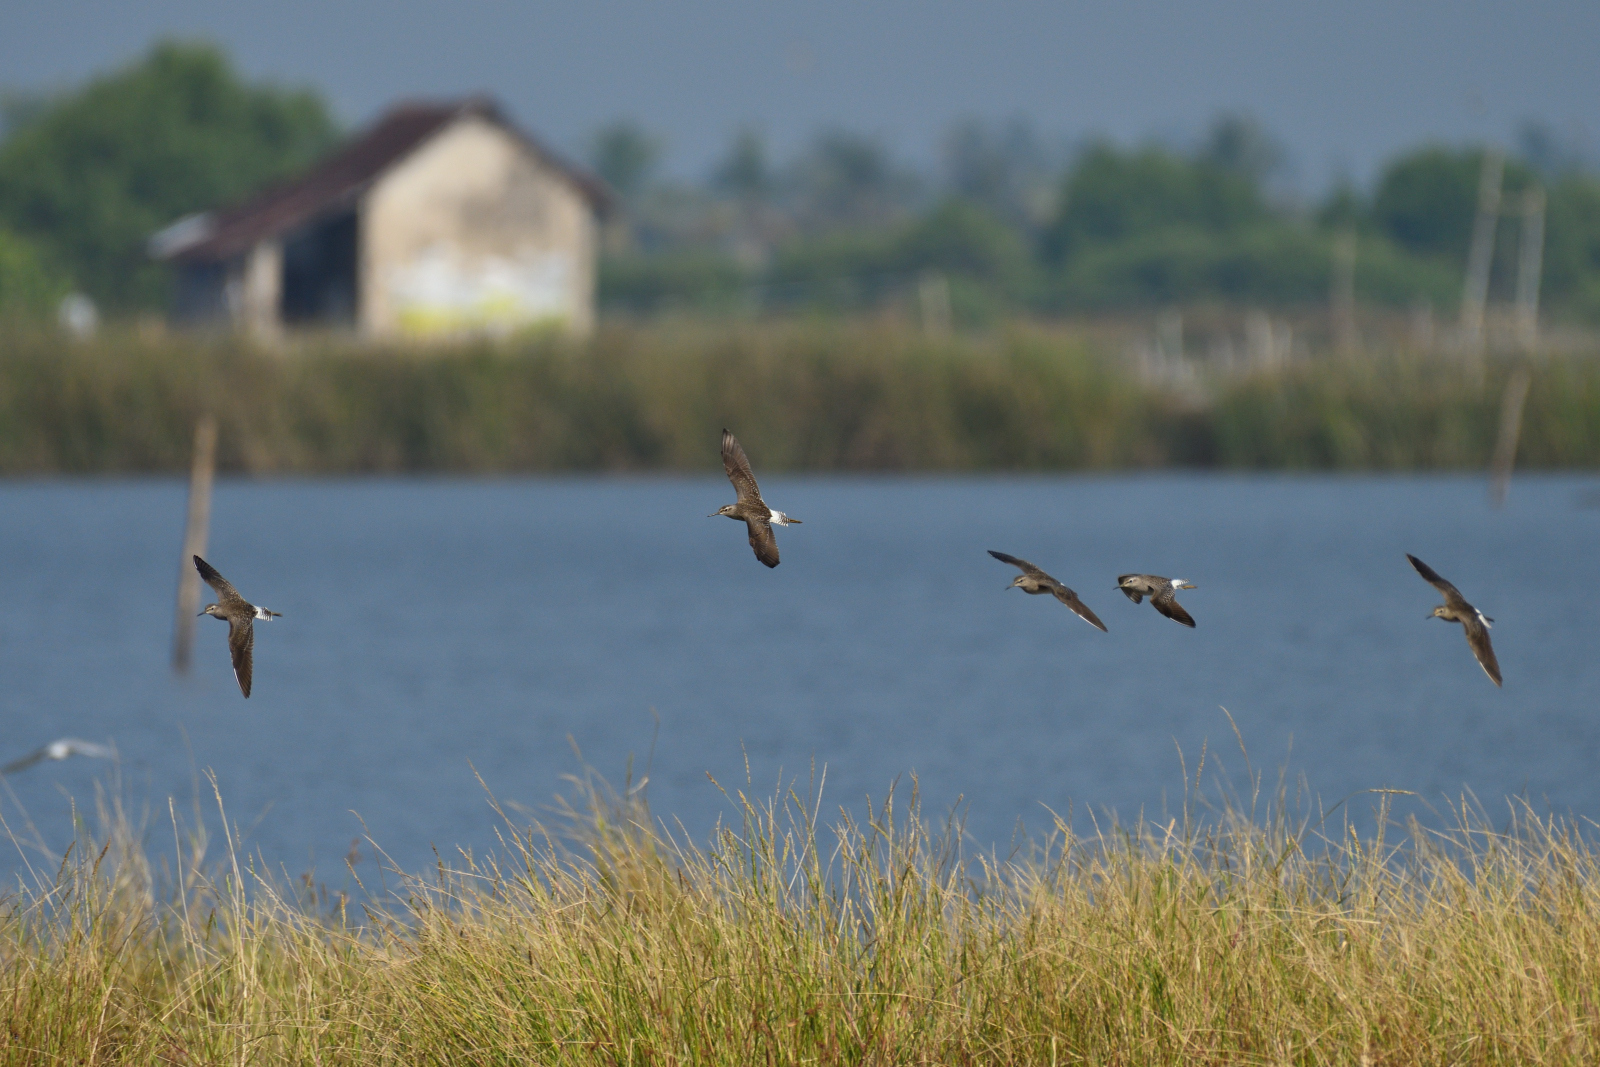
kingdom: Animalia
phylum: Chordata
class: Aves
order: Charadriiformes
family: Scolopacidae
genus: Actitis
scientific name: Actitis hypoleucos
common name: Common sandpiper
